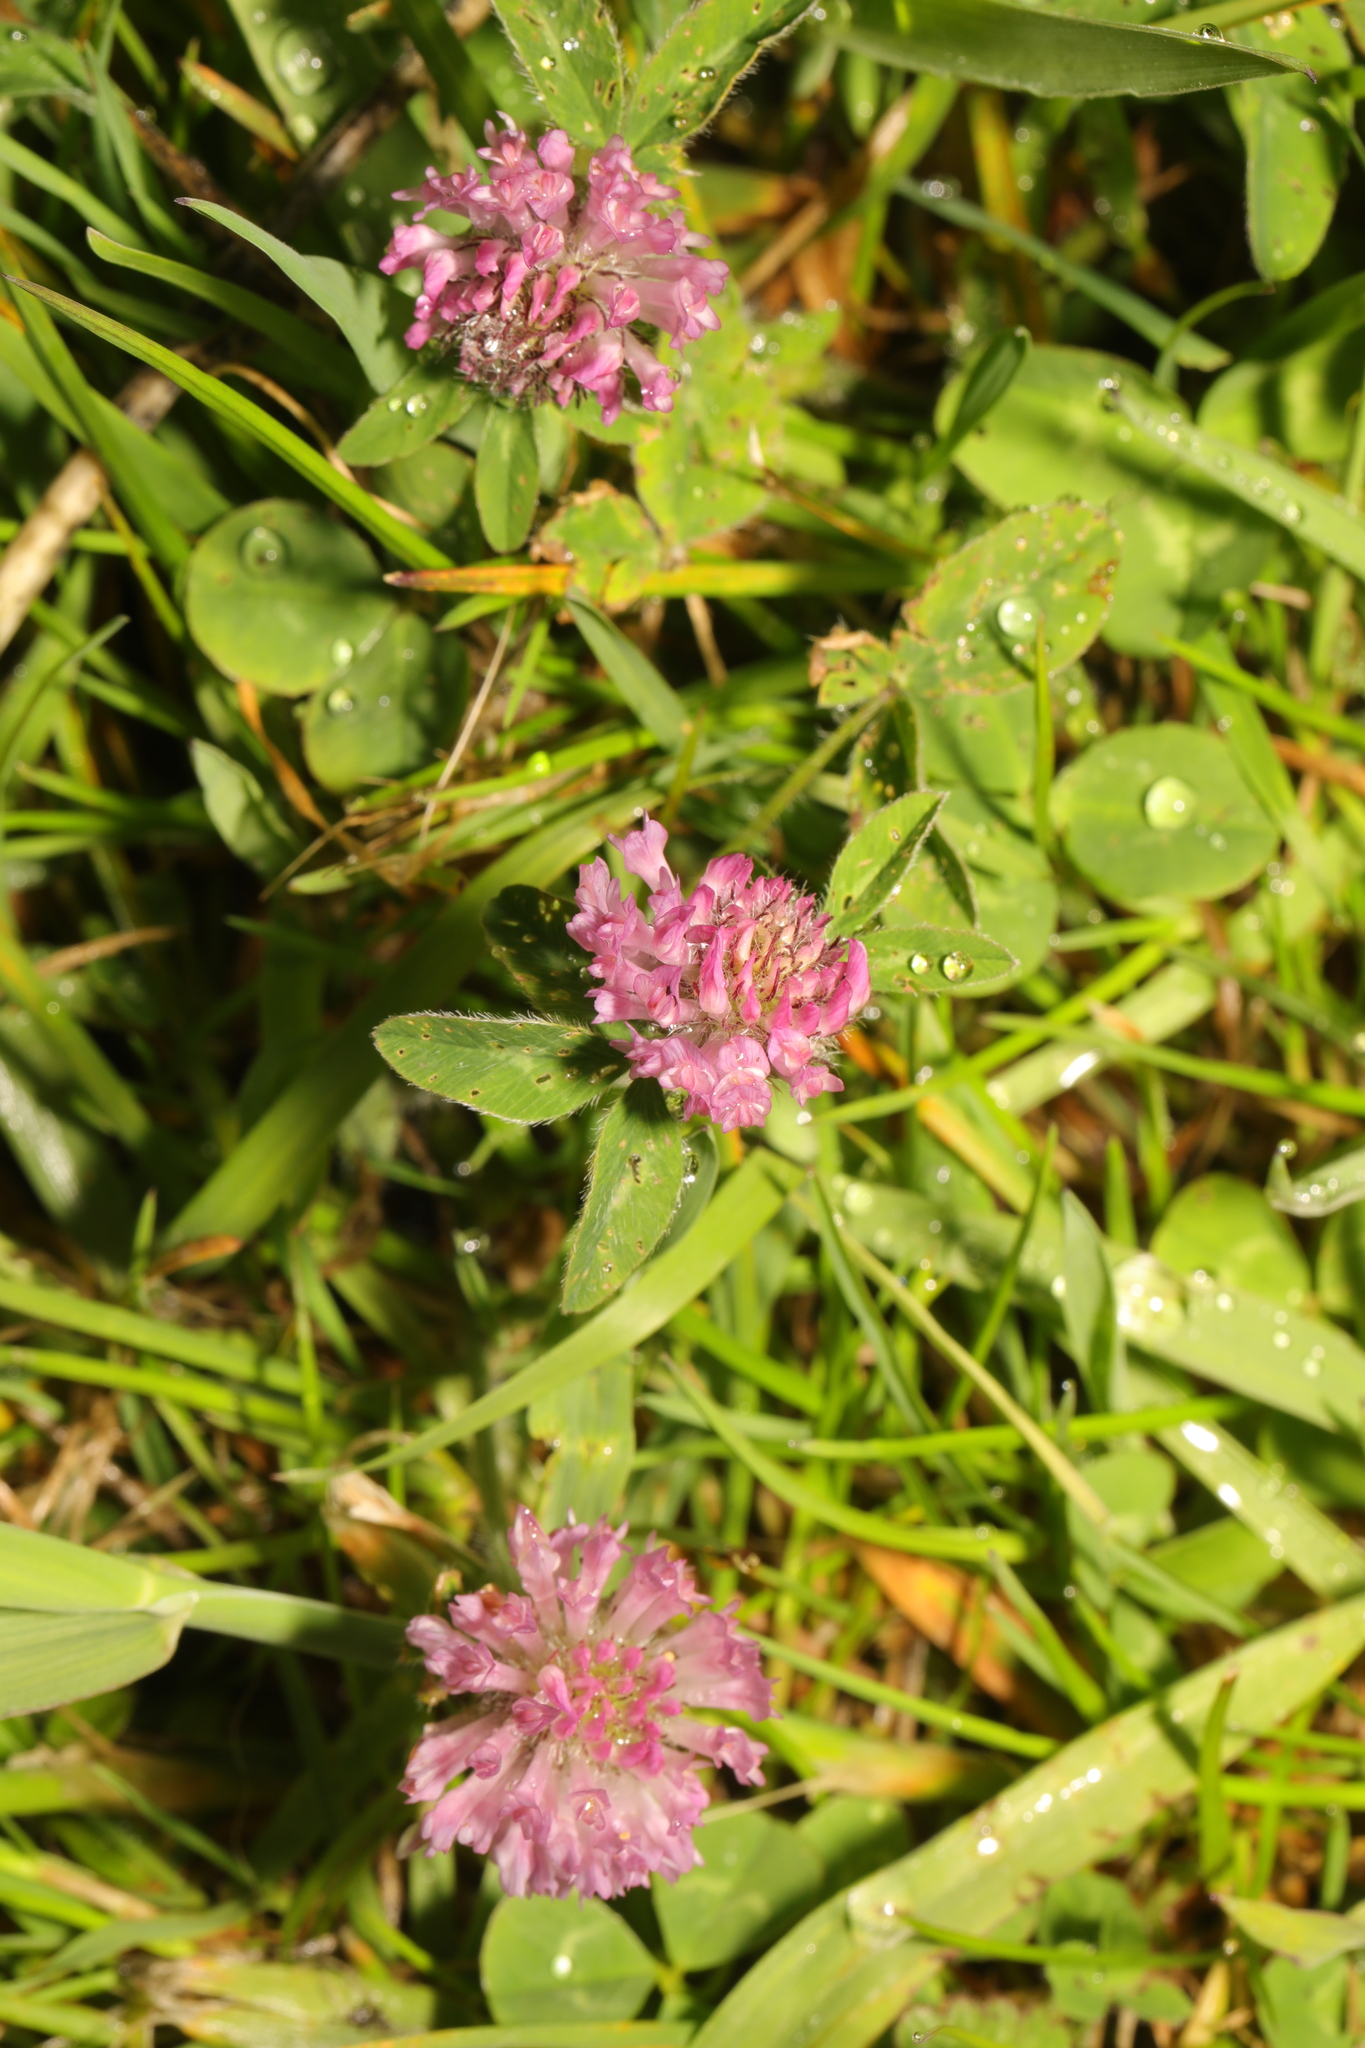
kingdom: Plantae
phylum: Tracheophyta
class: Magnoliopsida
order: Fabales
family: Fabaceae
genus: Trifolium
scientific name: Trifolium pratense
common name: Red clover
